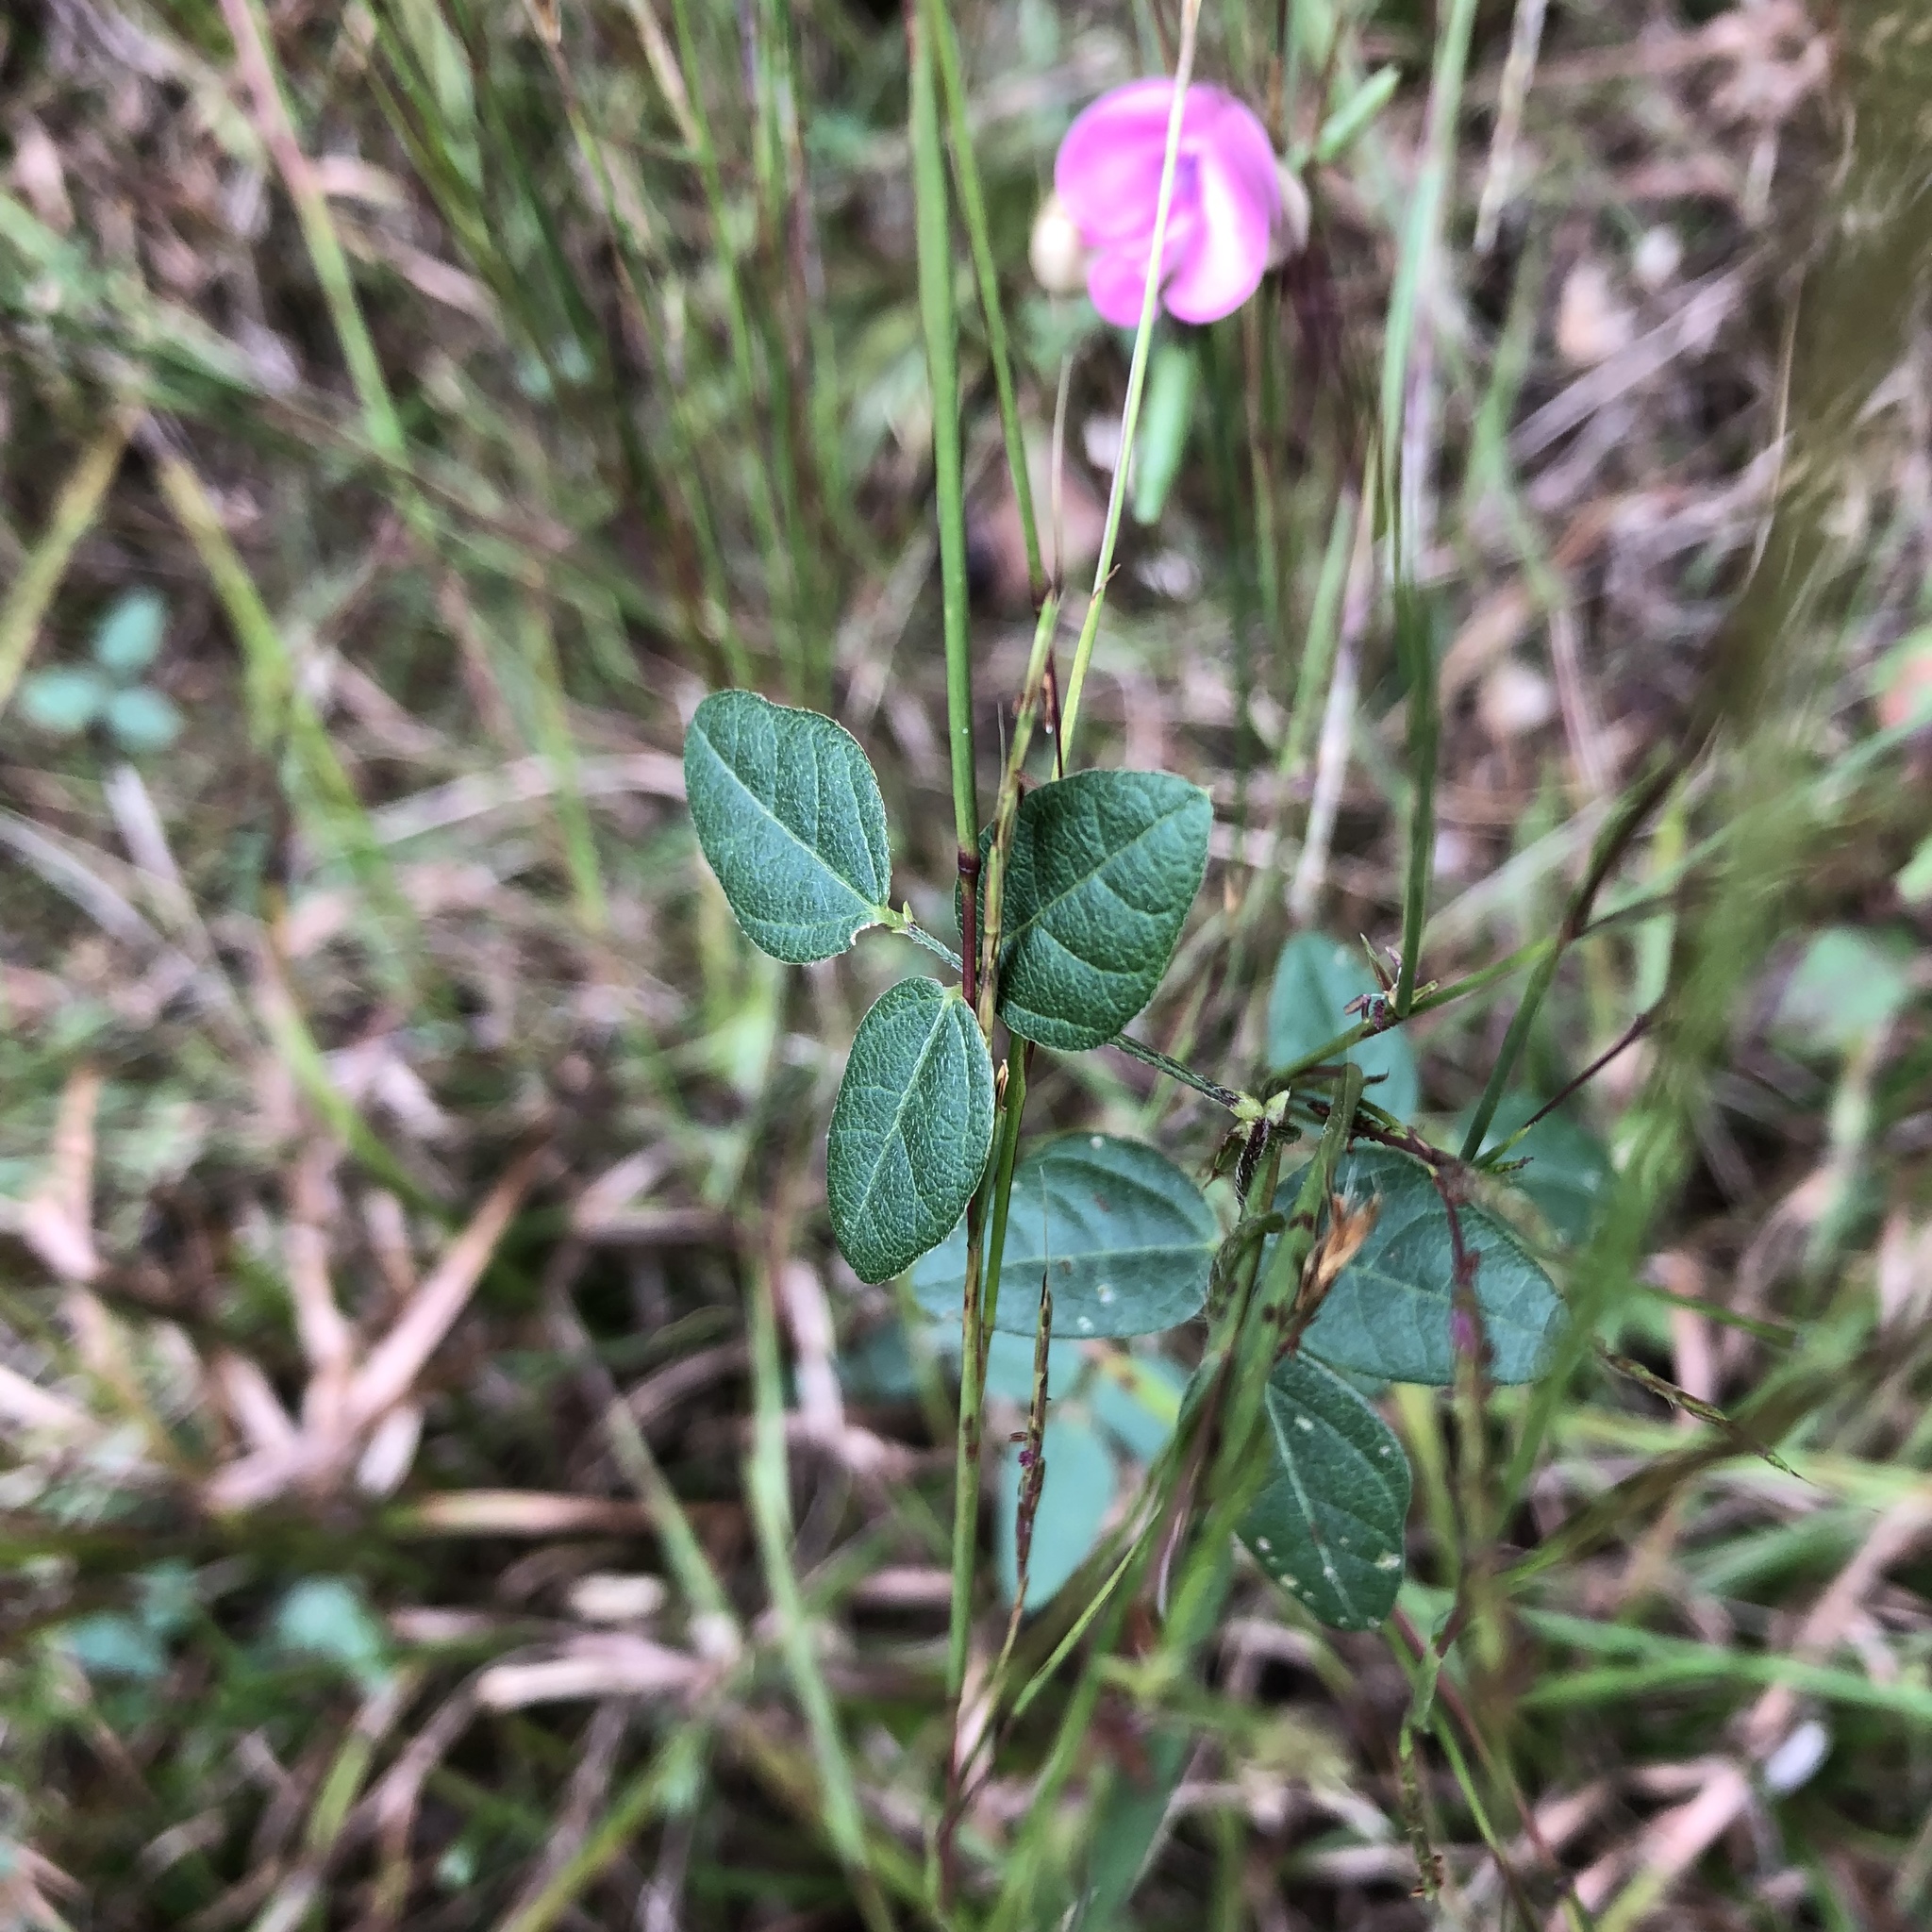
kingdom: Plantae
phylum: Tracheophyta
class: Magnoliopsida
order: Fabales
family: Fabaceae
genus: Strophostyles
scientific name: Strophostyles umbellata
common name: Perennial wild bean
